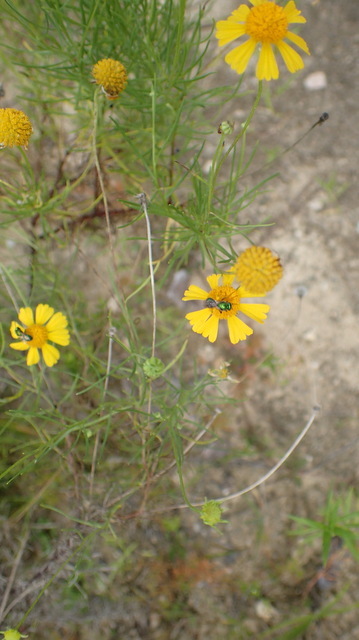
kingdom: Plantae
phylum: Tracheophyta
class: Magnoliopsida
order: Asterales
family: Asteraceae
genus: Helenium
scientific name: Helenium amarum
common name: Bitter sneezeweed
